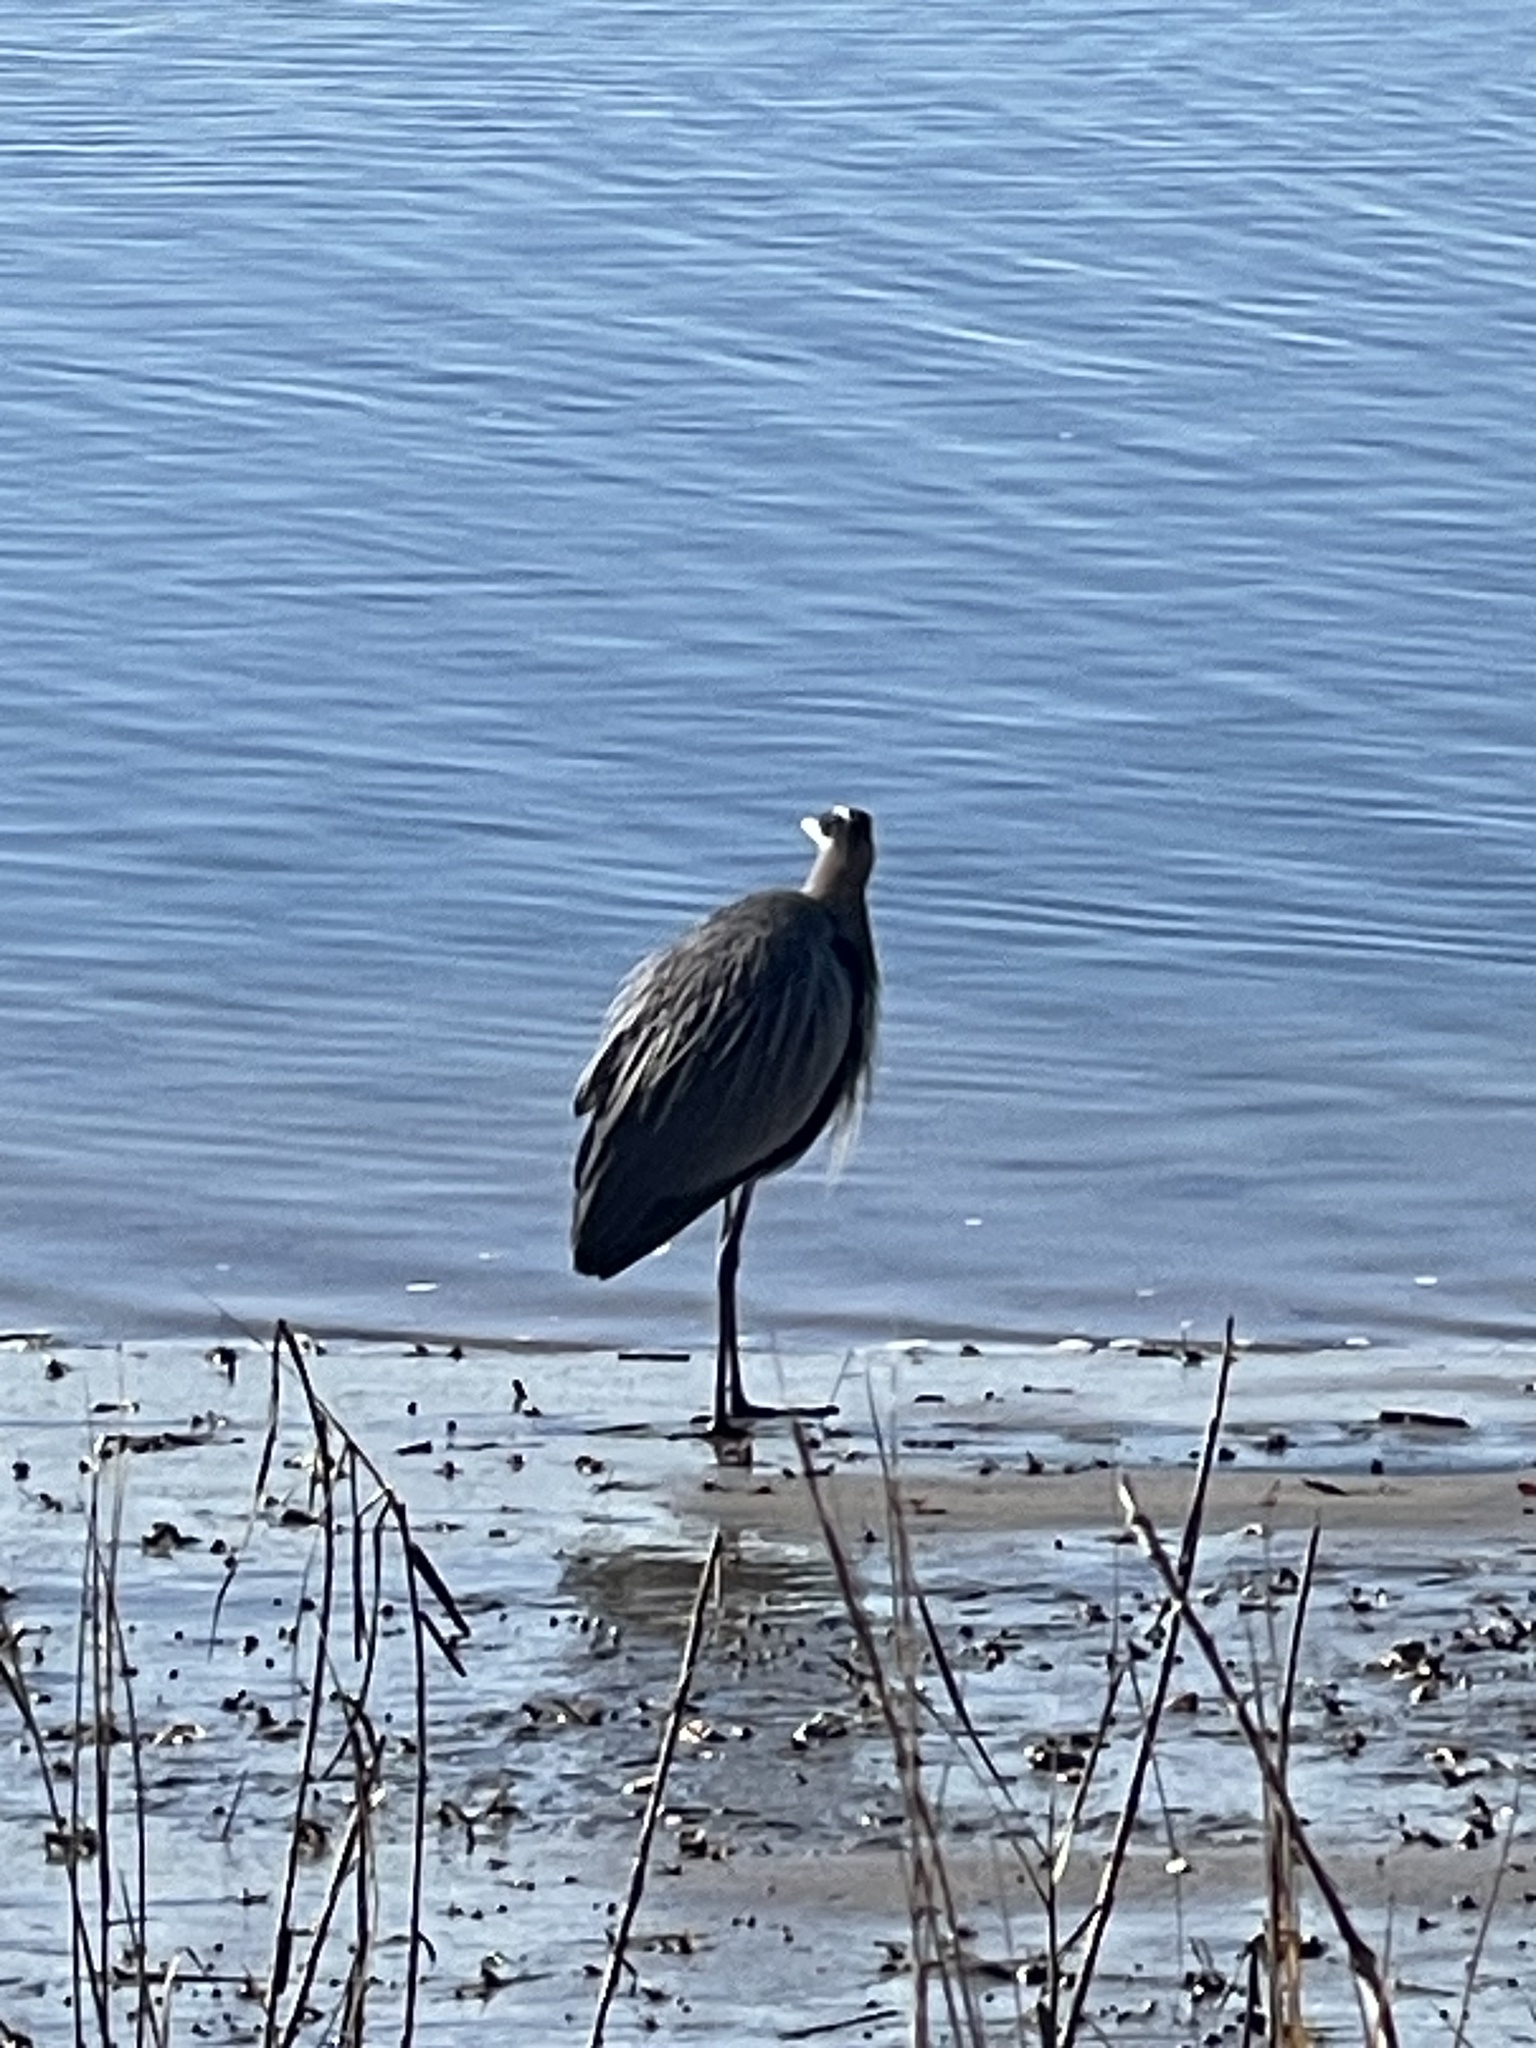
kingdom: Animalia
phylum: Chordata
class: Aves
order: Pelecaniformes
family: Ardeidae
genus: Ardea
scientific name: Ardea herodias
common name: Great blue heron
